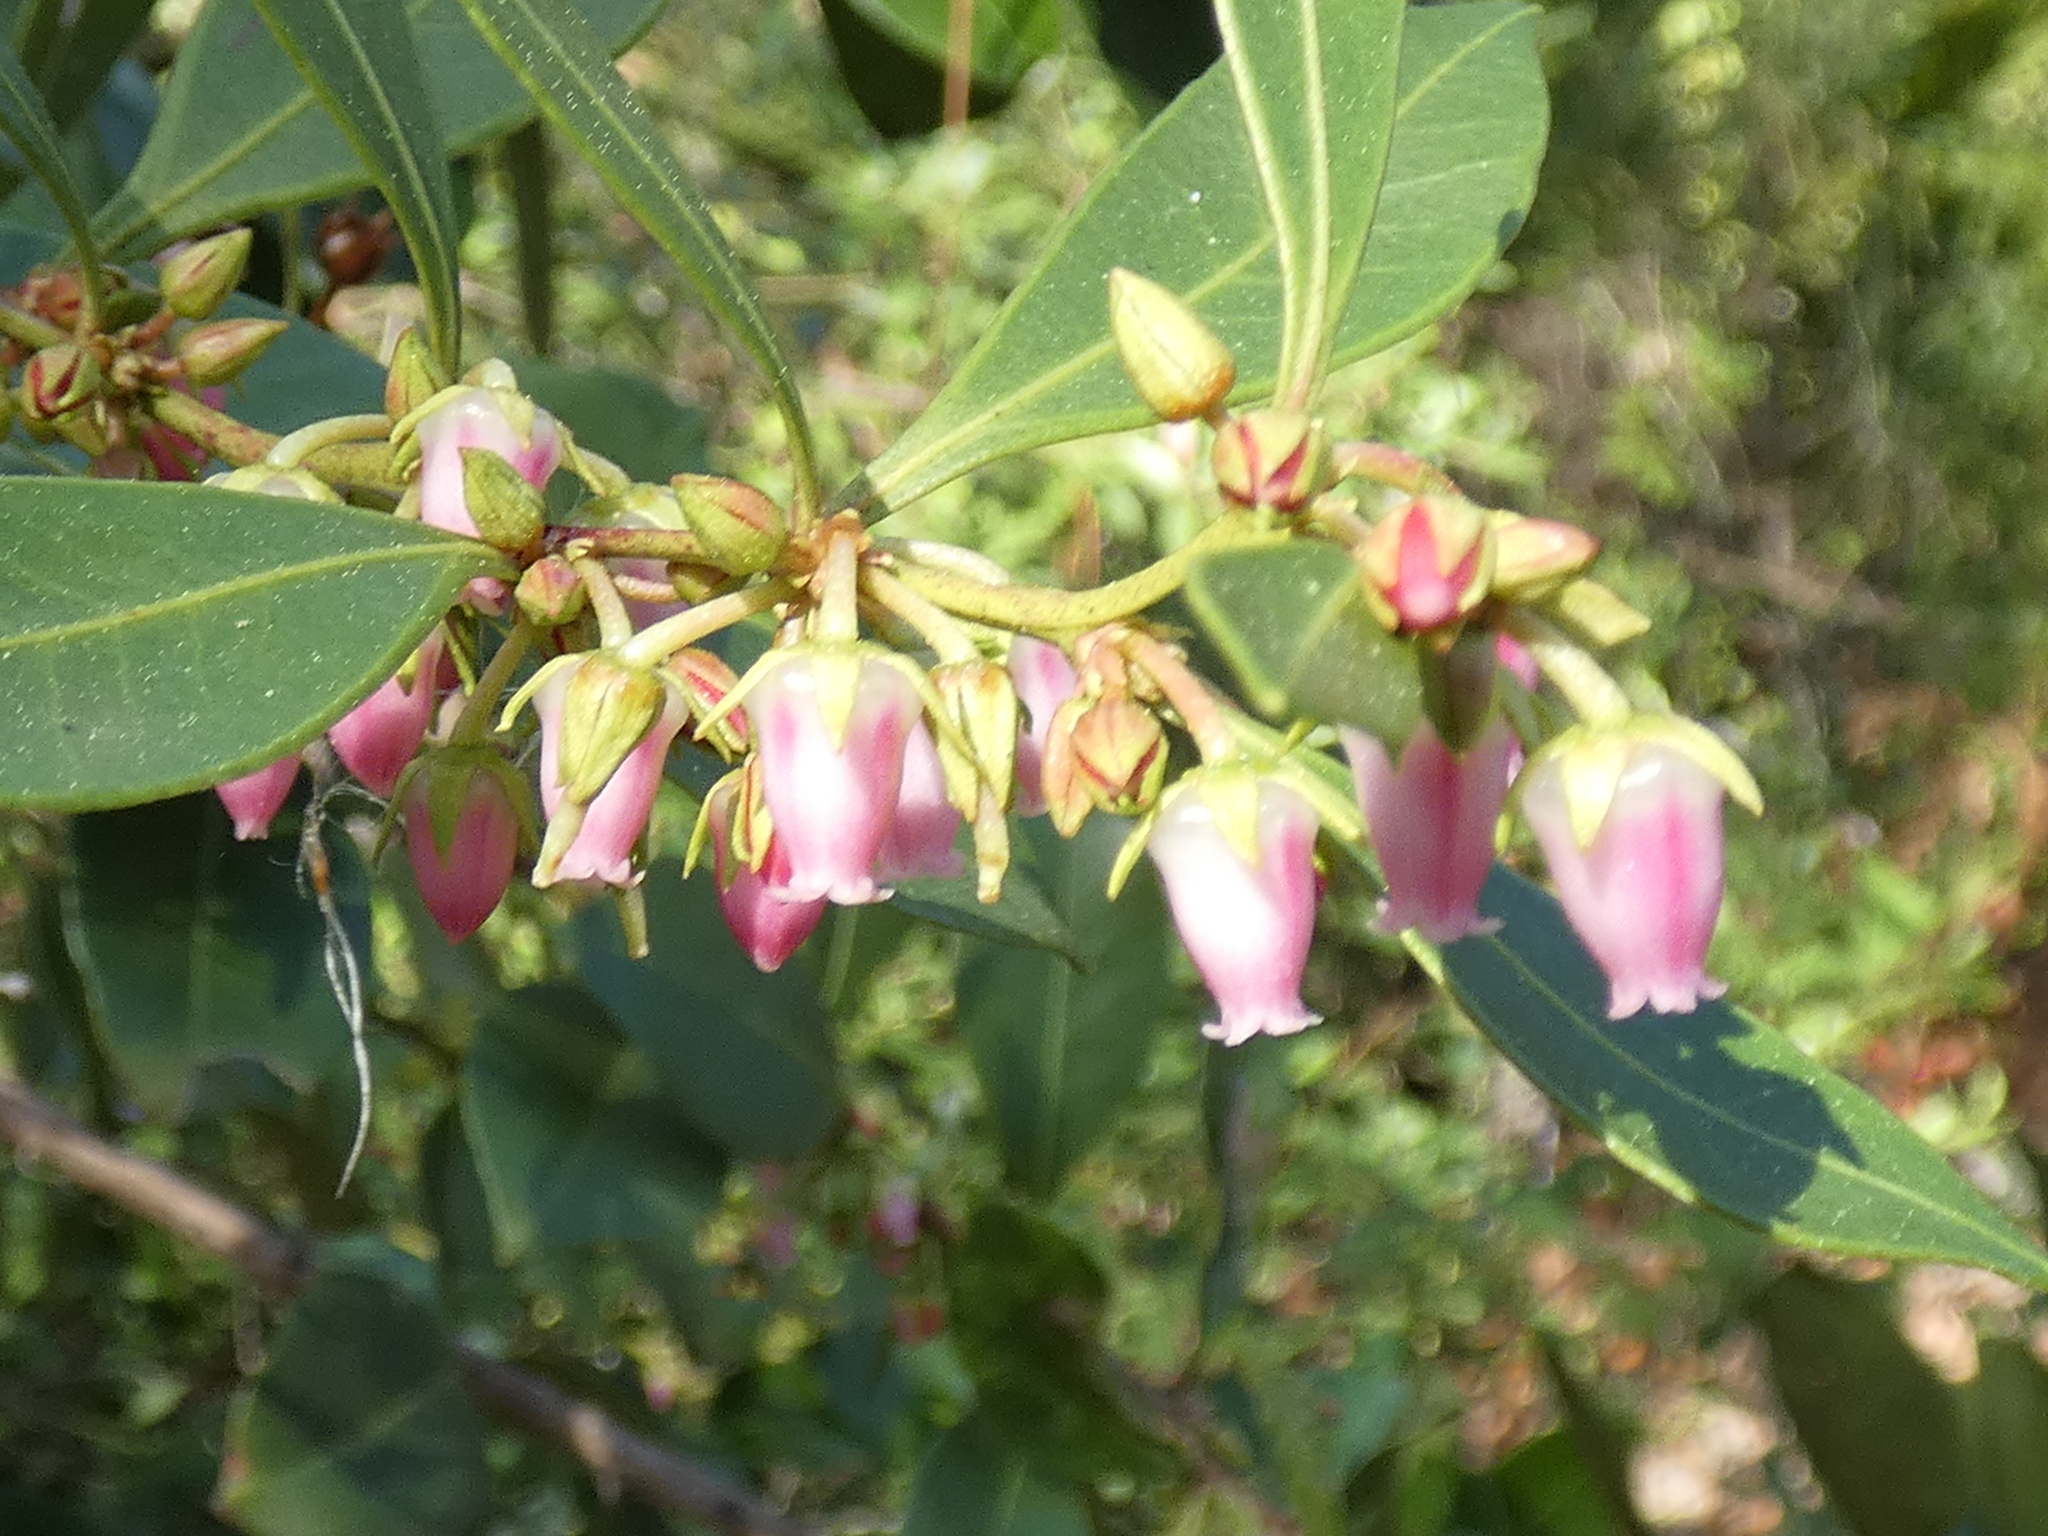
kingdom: Plantae
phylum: Tracheophyta
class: Magnoliopsida
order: Ericales
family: Ericaceae
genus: Lyonia
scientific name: Lyonia lucida
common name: Fetterbush
